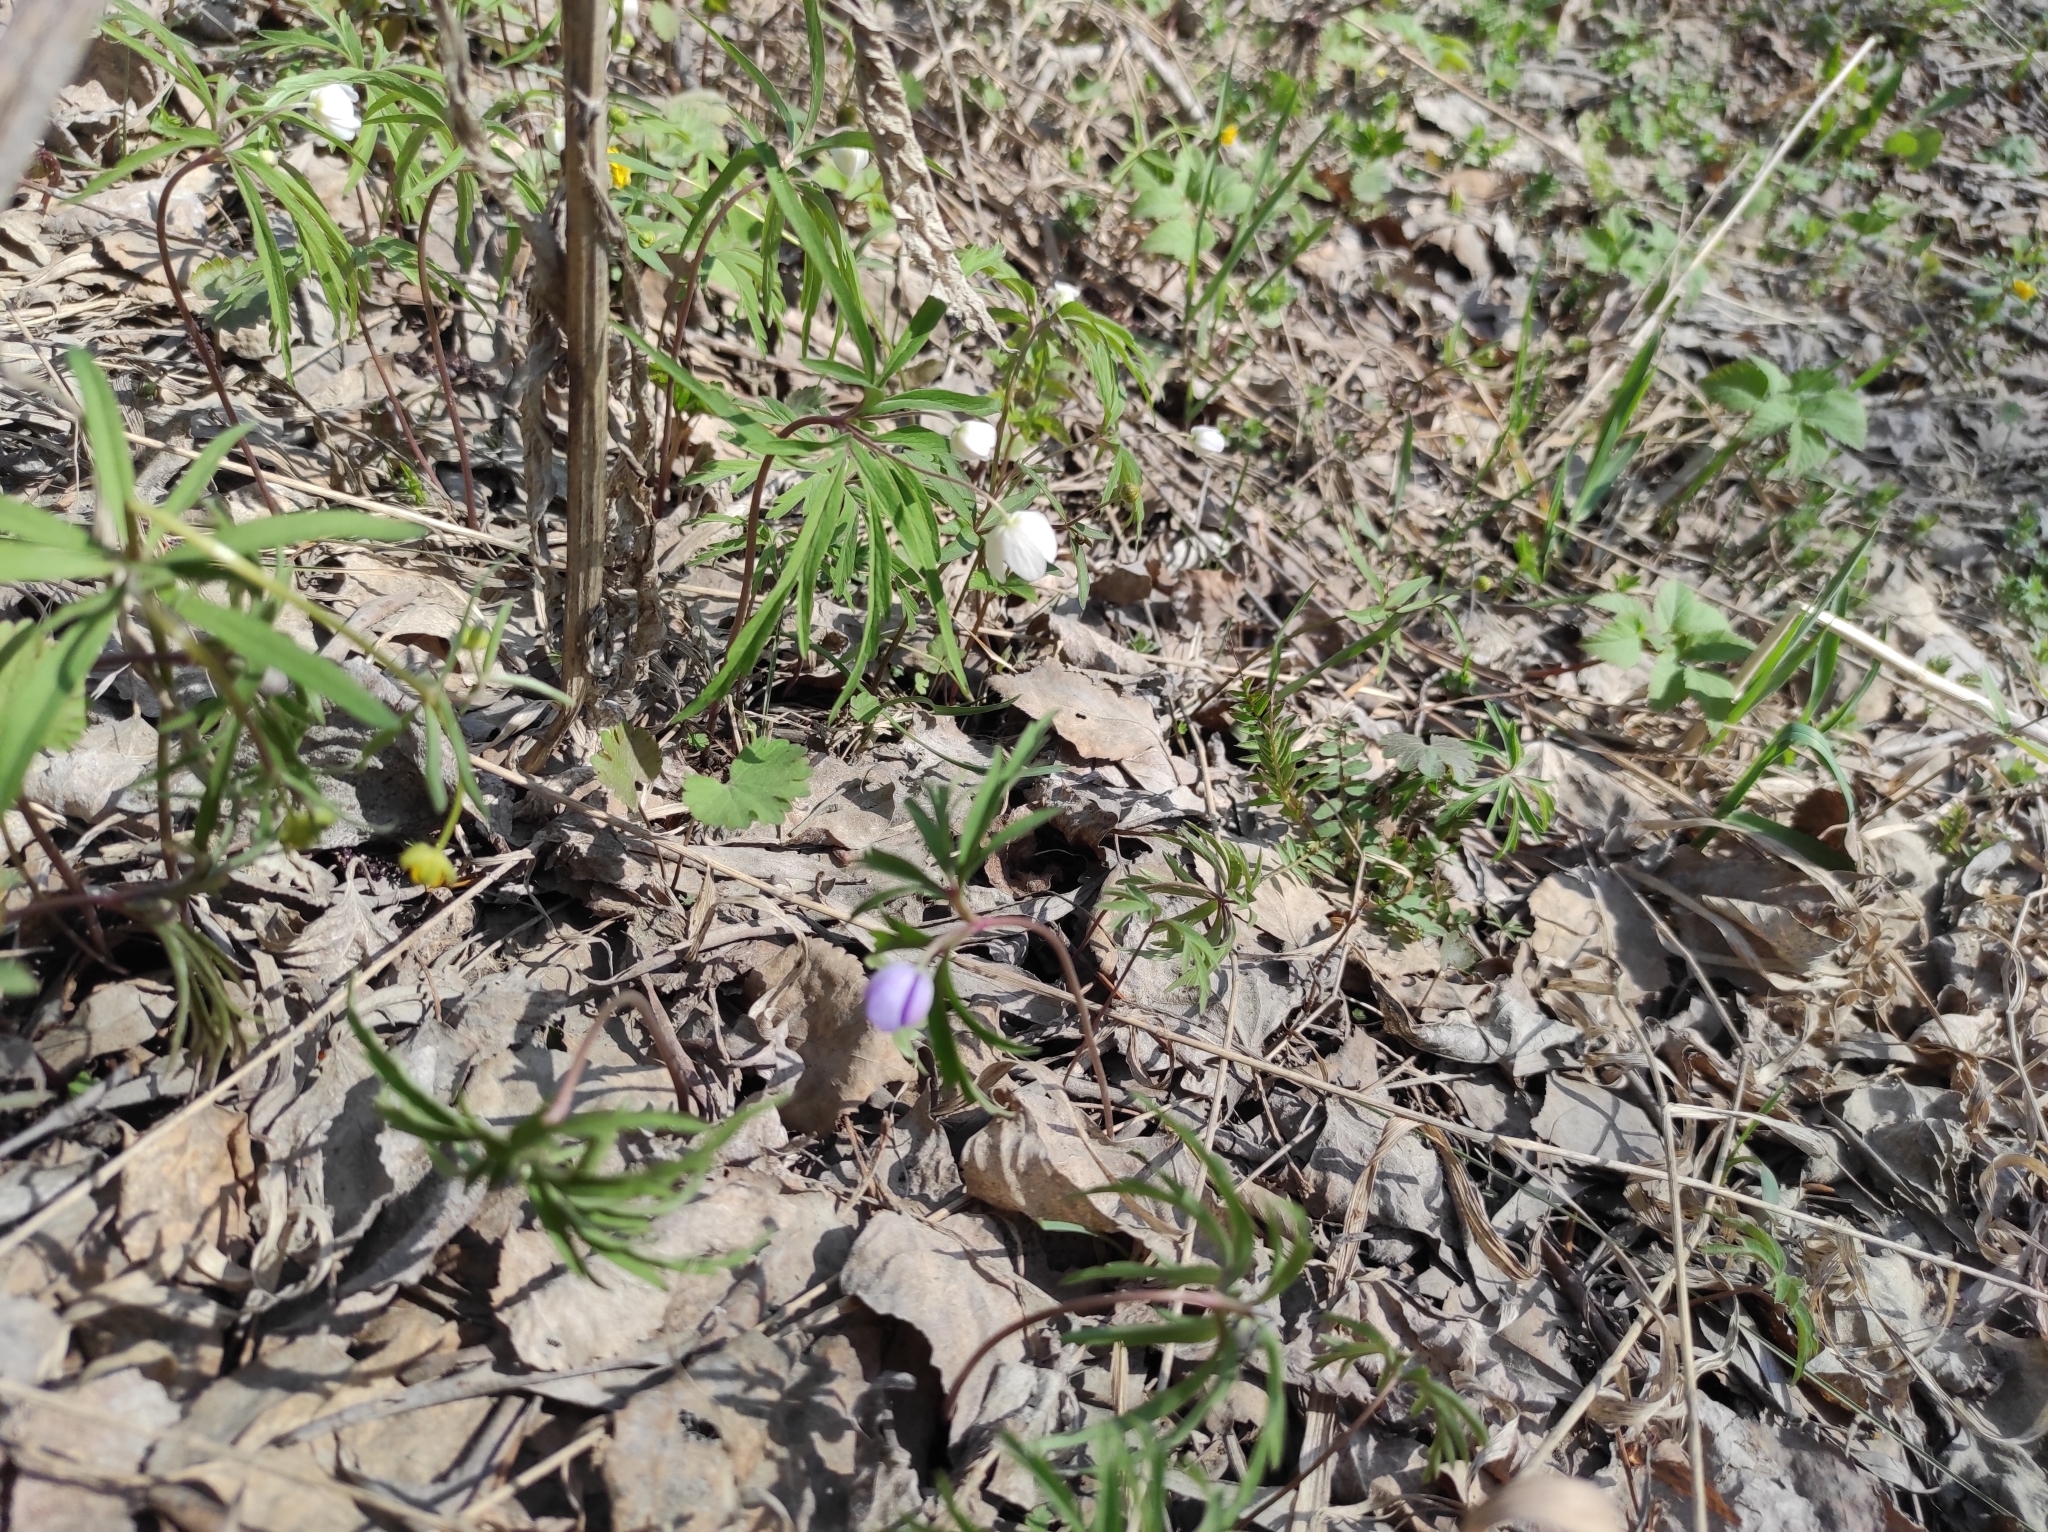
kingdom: Plantae
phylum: Tracheophyta
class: Magnoliopsida
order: Ranunculales
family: Ranunculaceae
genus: Anemone
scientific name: Anemone caerulea
